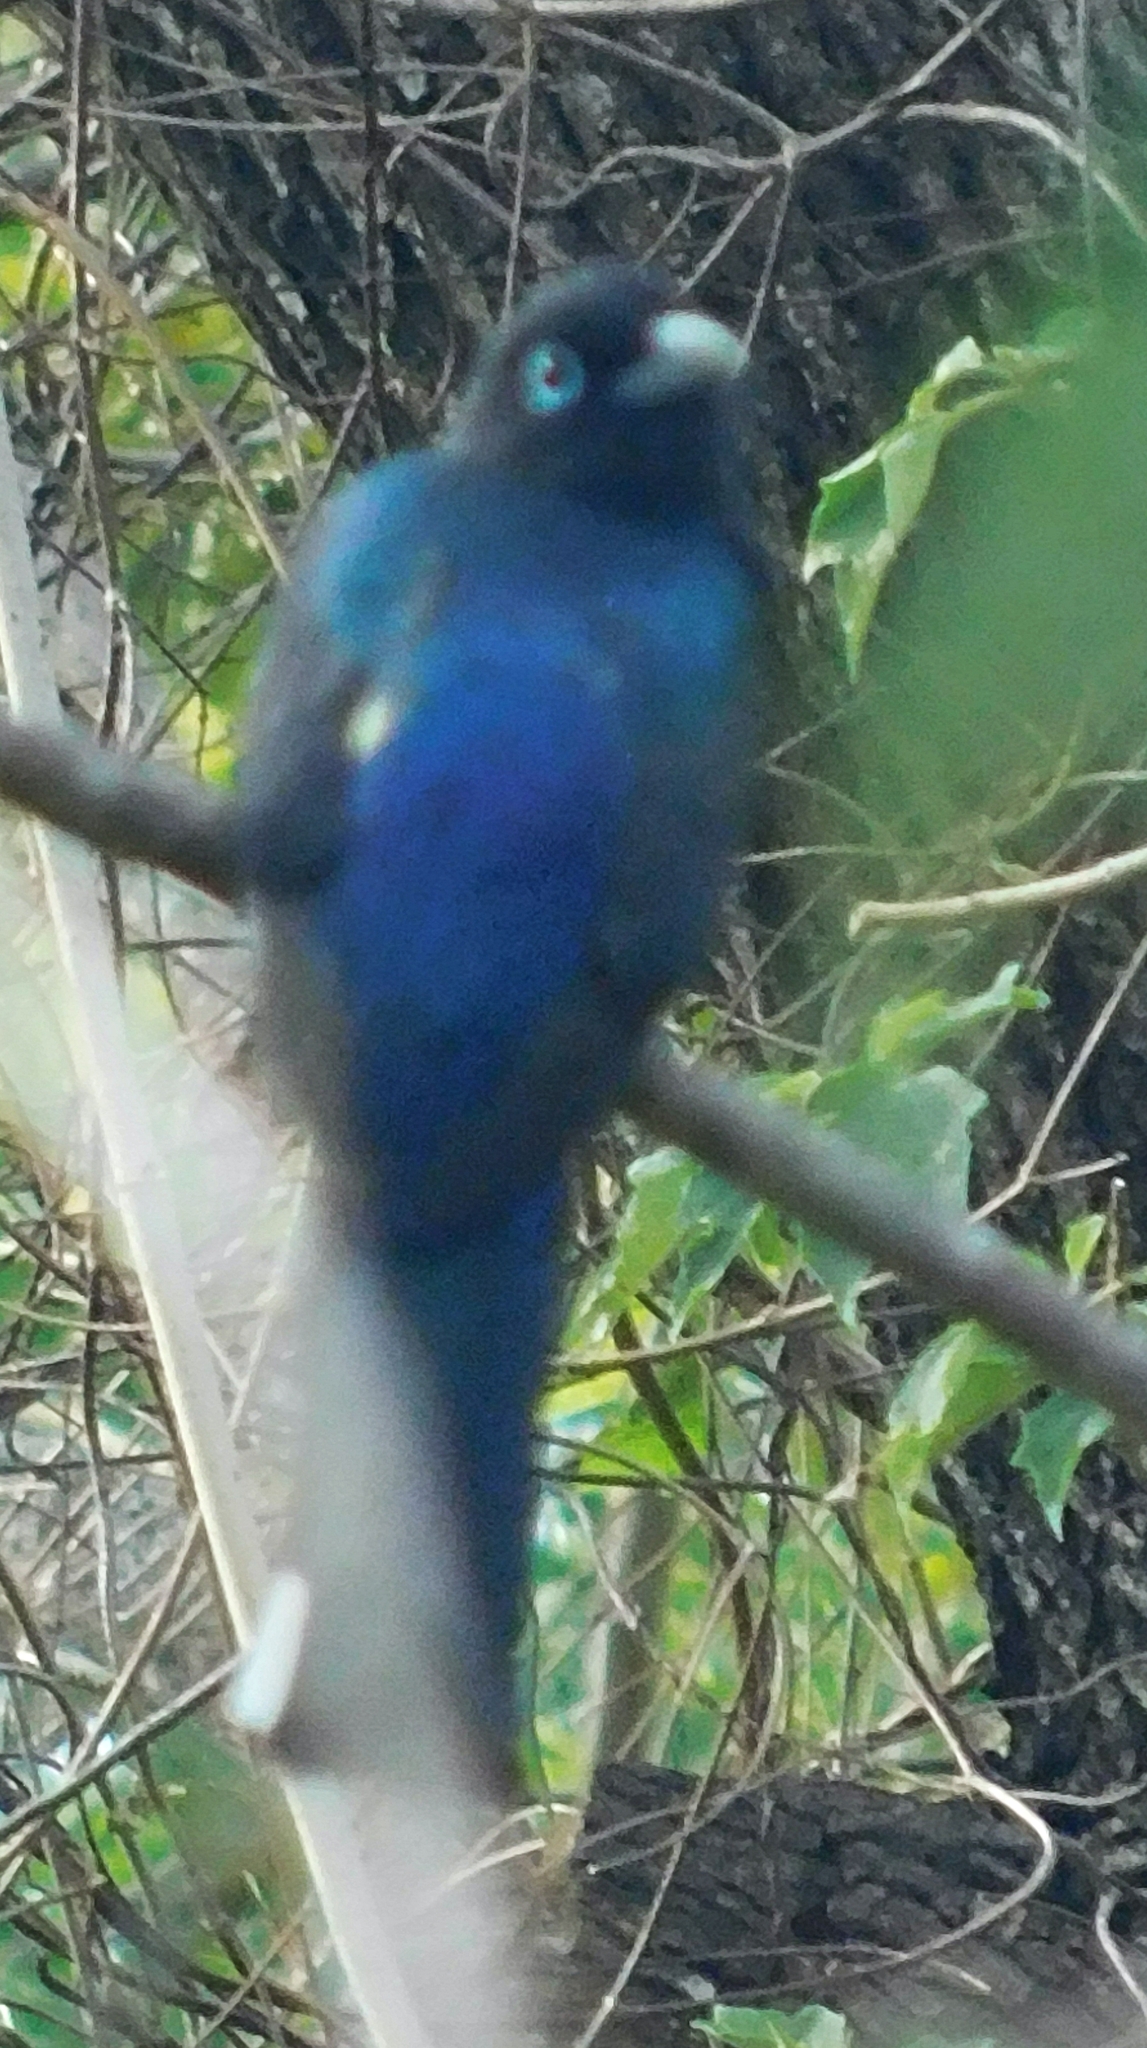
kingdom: Animalia
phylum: Chordata
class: Aves
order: Trogoniformes
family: Trogonidae
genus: Trogon
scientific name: Trogon melanocephalus
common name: Black-headed trogon
